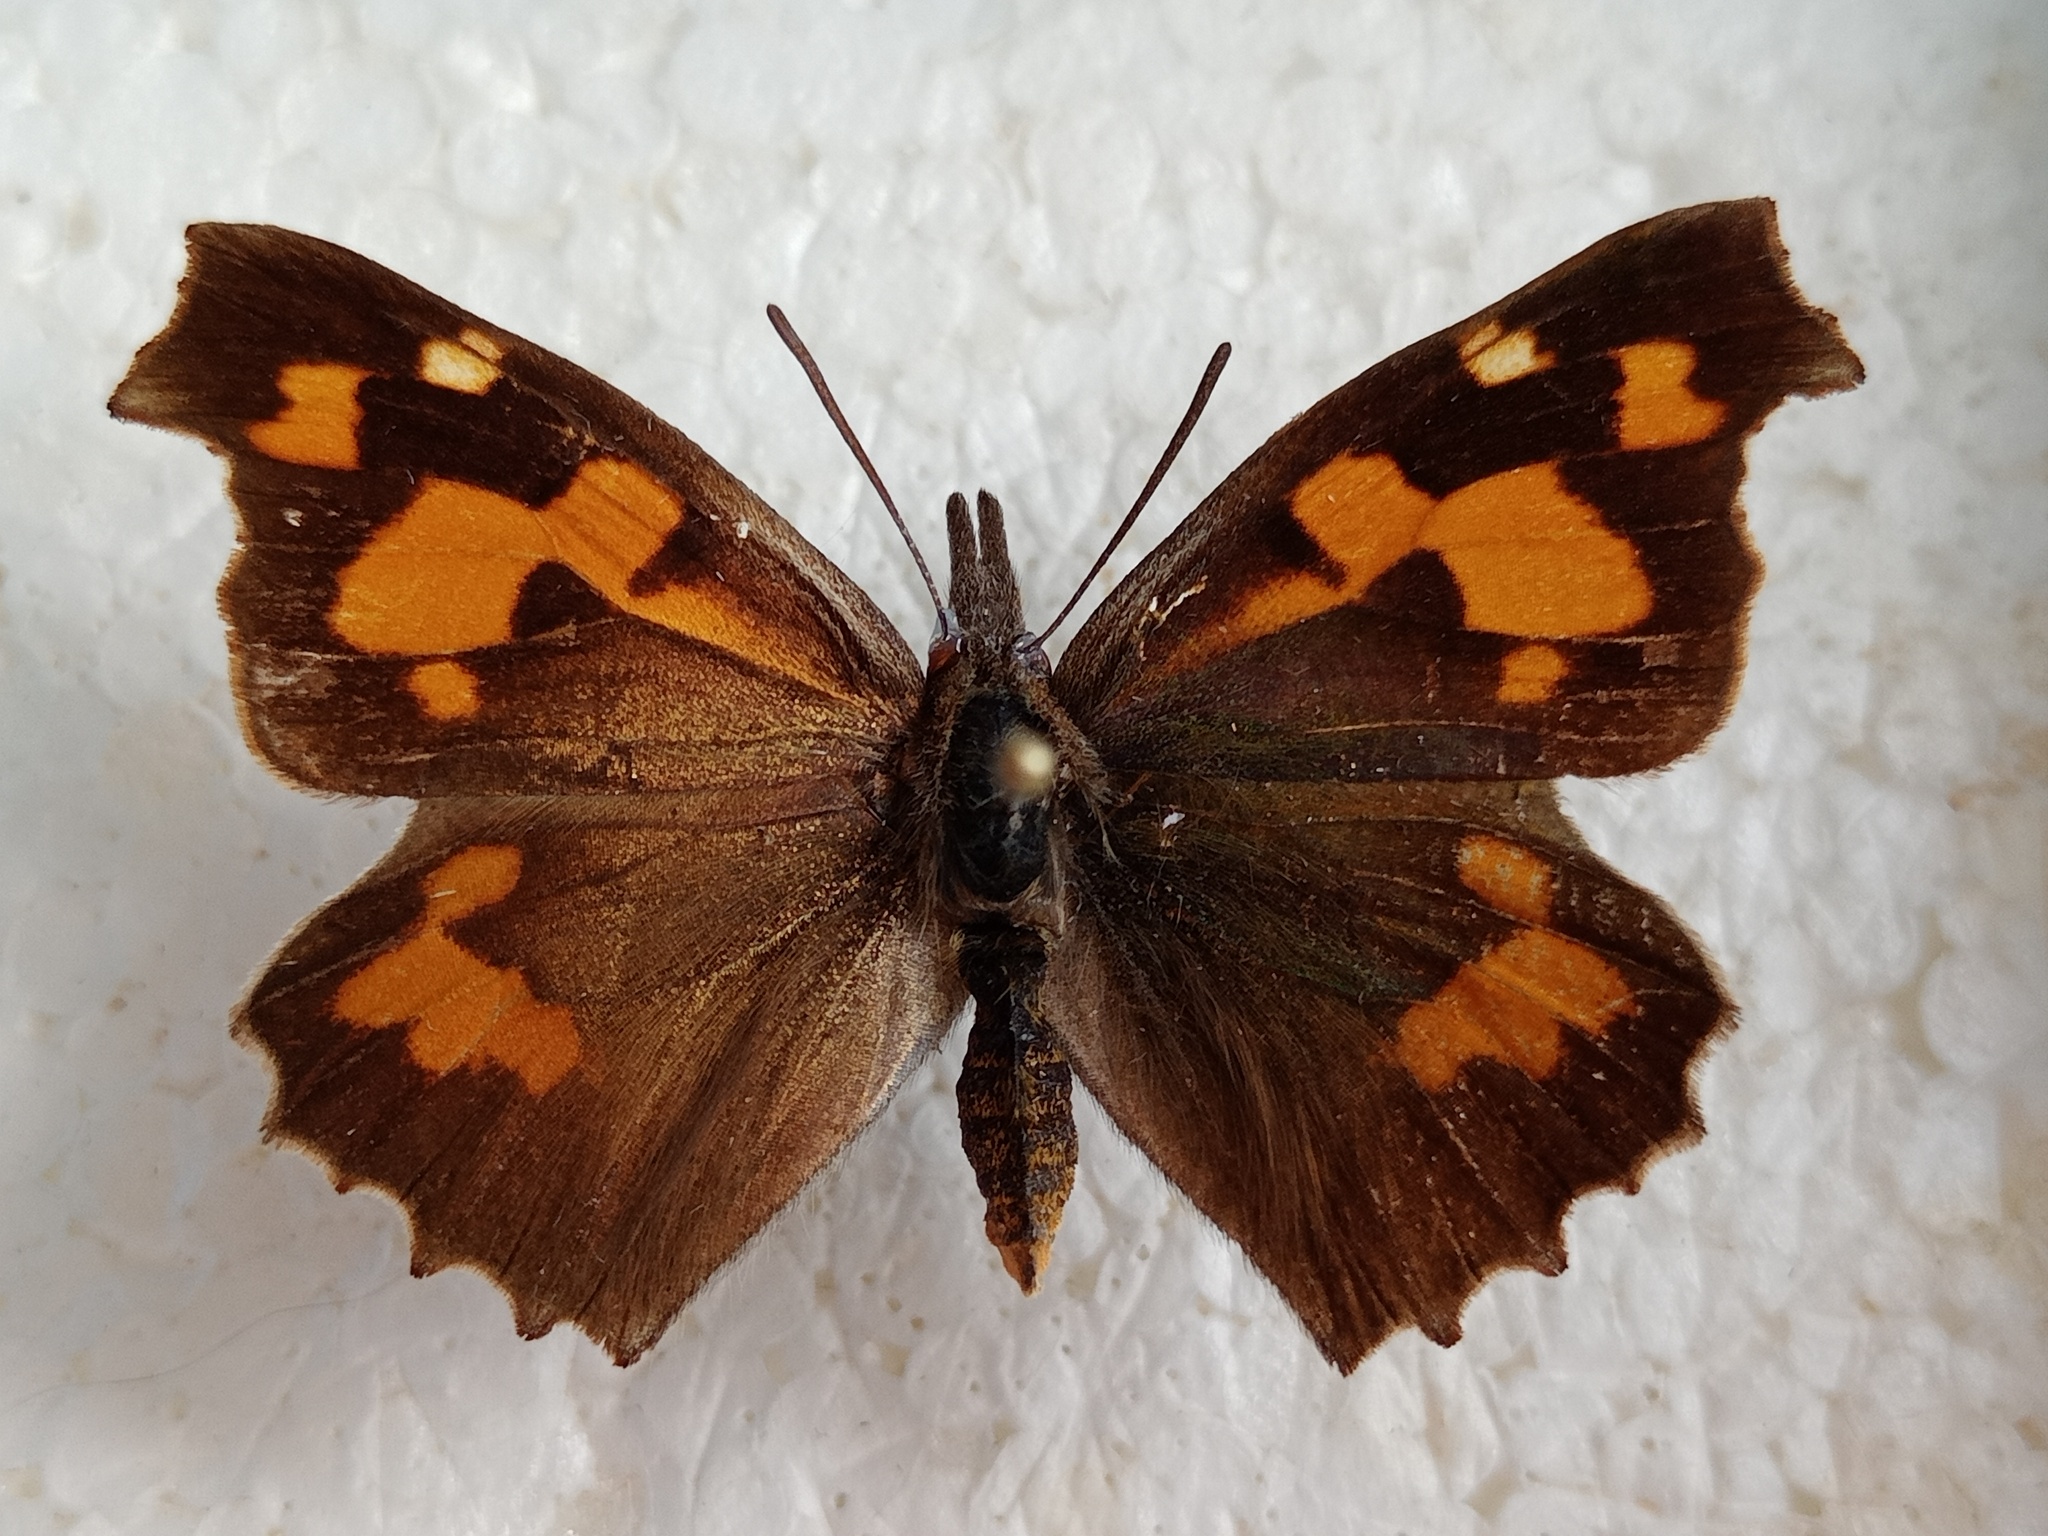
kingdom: Animalia
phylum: Arthropoda
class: Insecta
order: Lepidoptera
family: Nymphalidae
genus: Libythea
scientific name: Libythea celtis
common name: Nettle-tree butterfly
